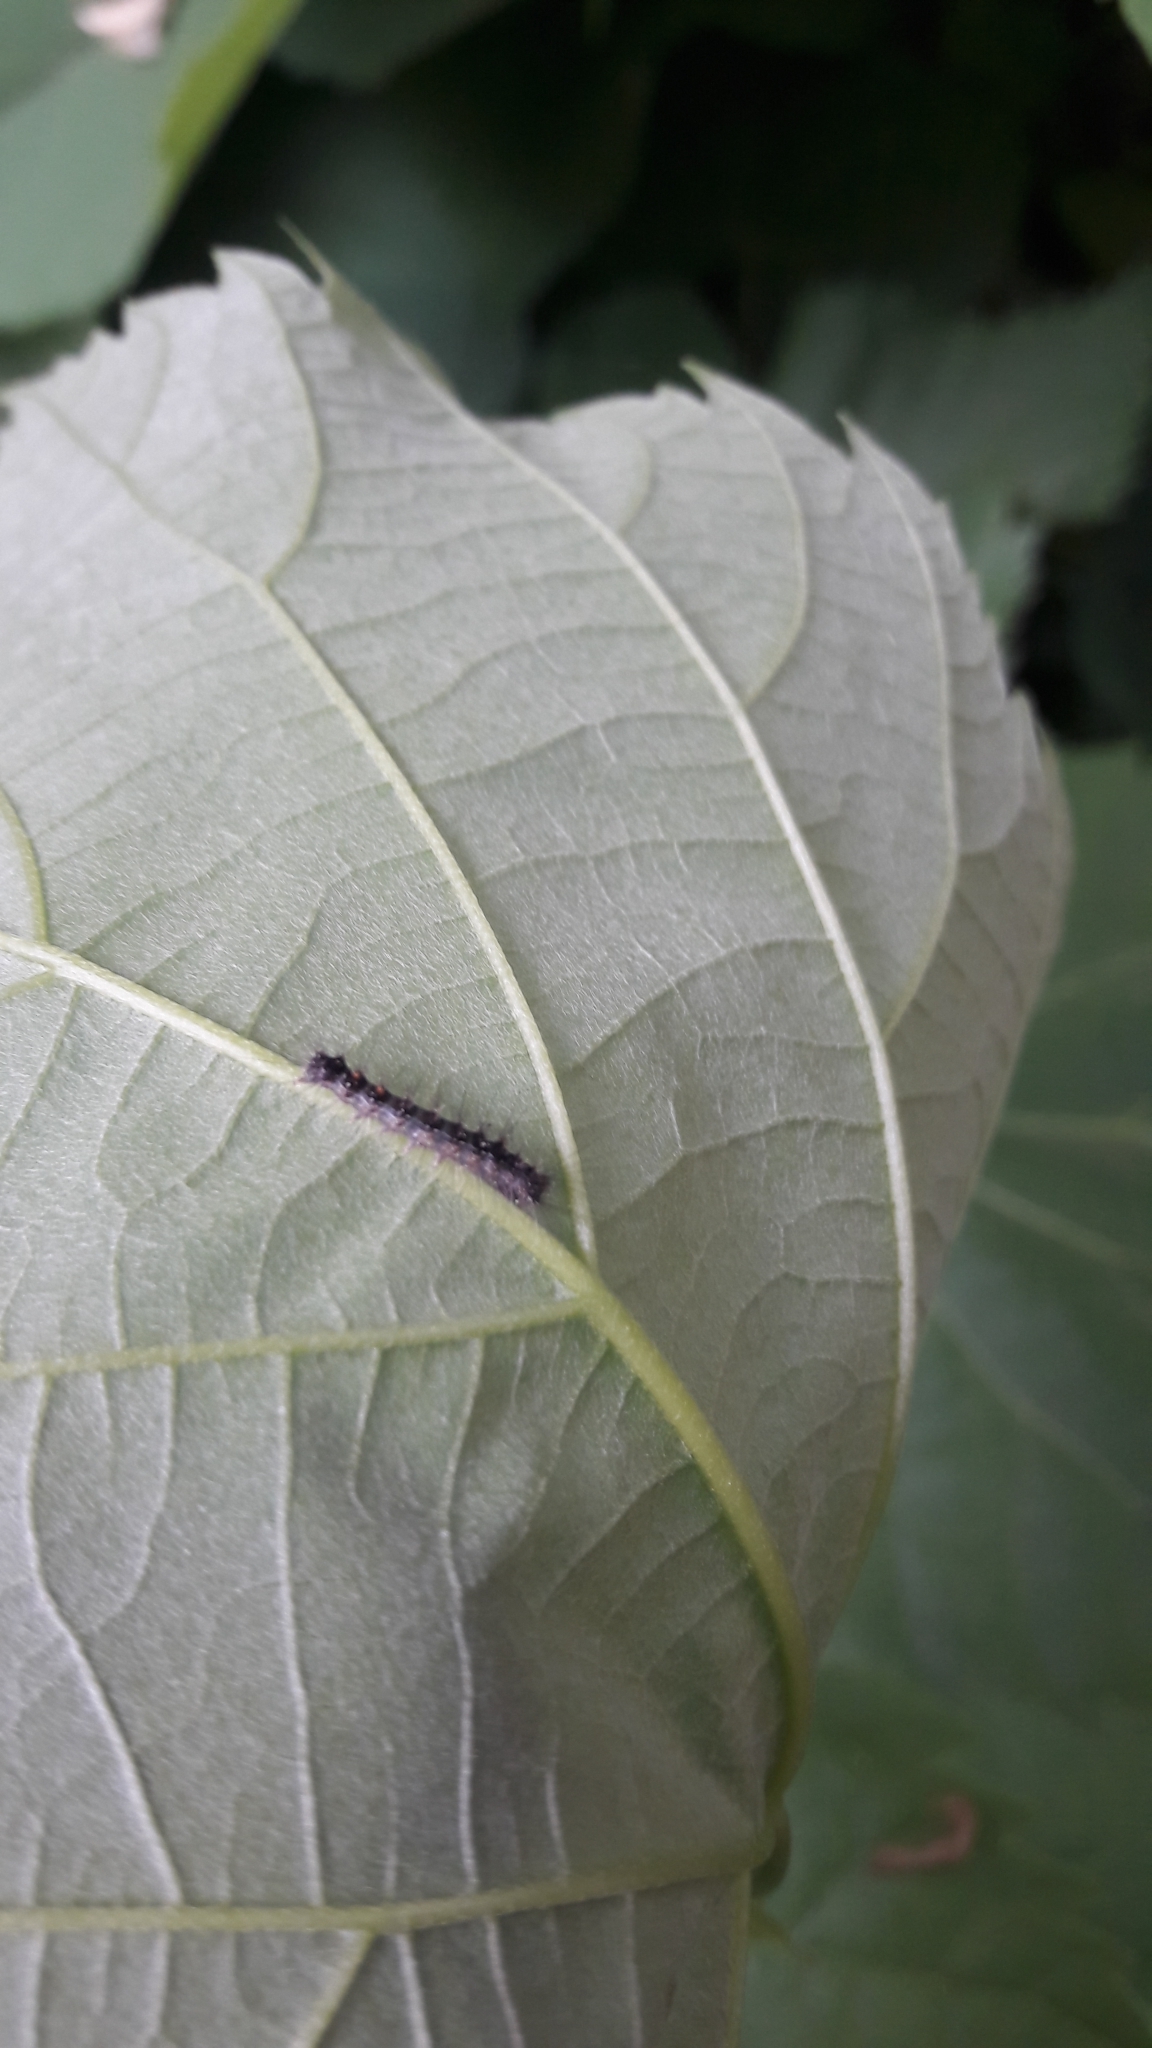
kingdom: Animalia
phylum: Arthropoda
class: Insecta
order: Lepidoptera
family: Erebidae
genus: Lymantria
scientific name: Lymantria dispar
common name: Gypsy moth
